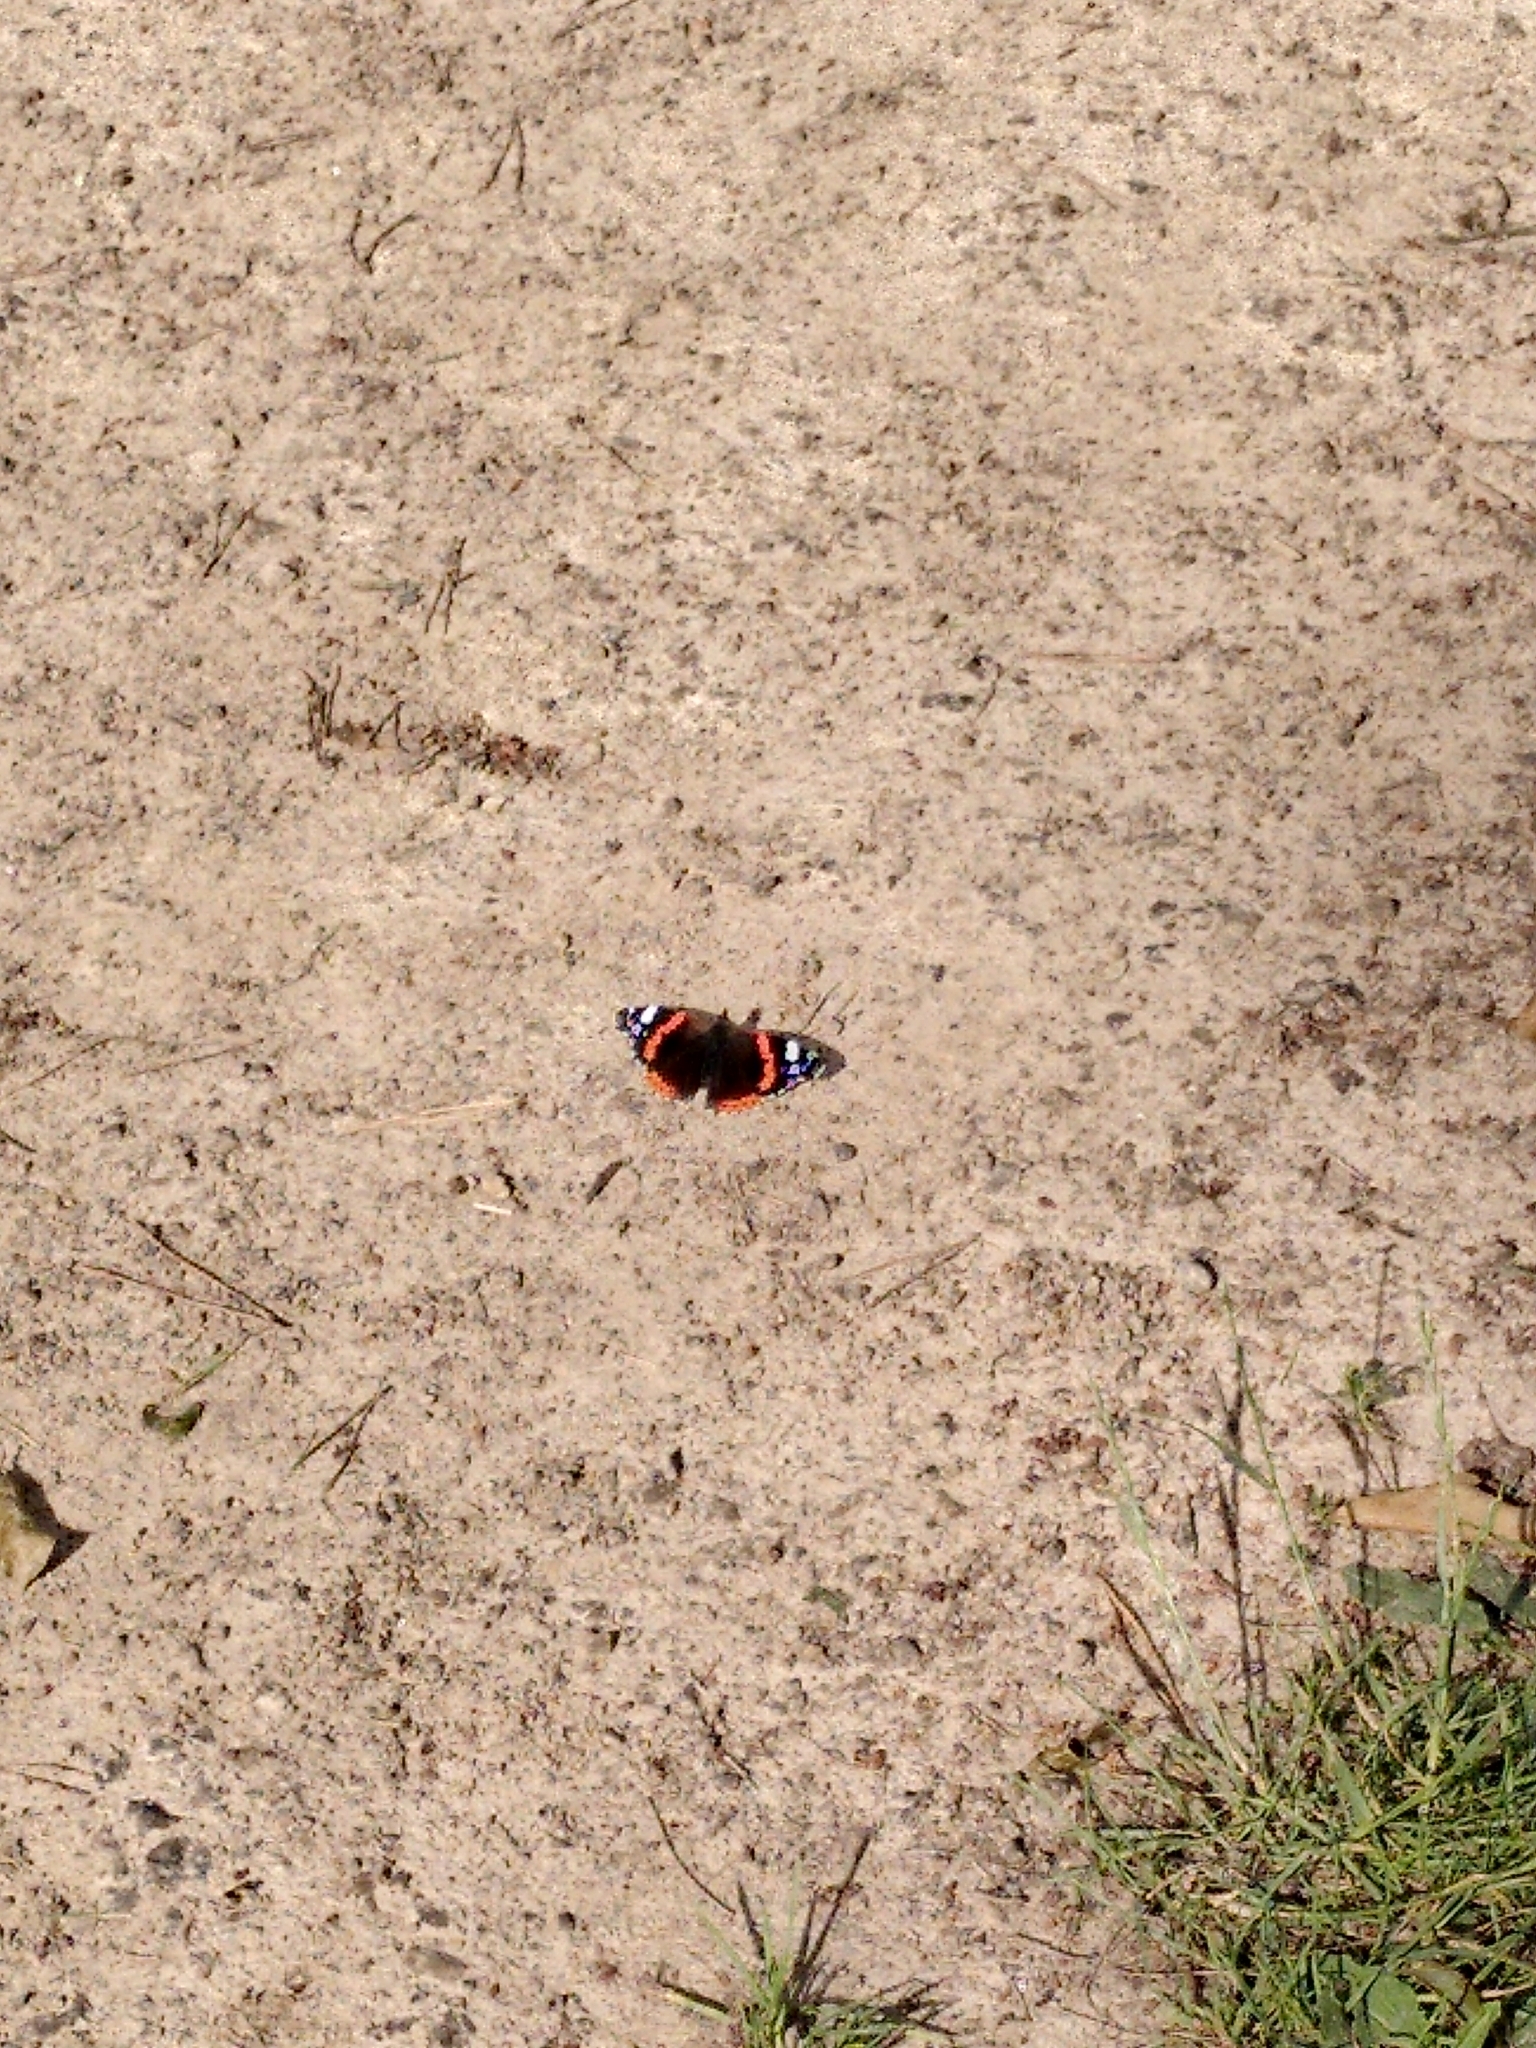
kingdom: Animalia
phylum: Arthropoda
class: Insecta
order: Lepidoptera
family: Nymphalidae
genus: Vanessa
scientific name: Vanessa atalanta
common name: Red admiral
